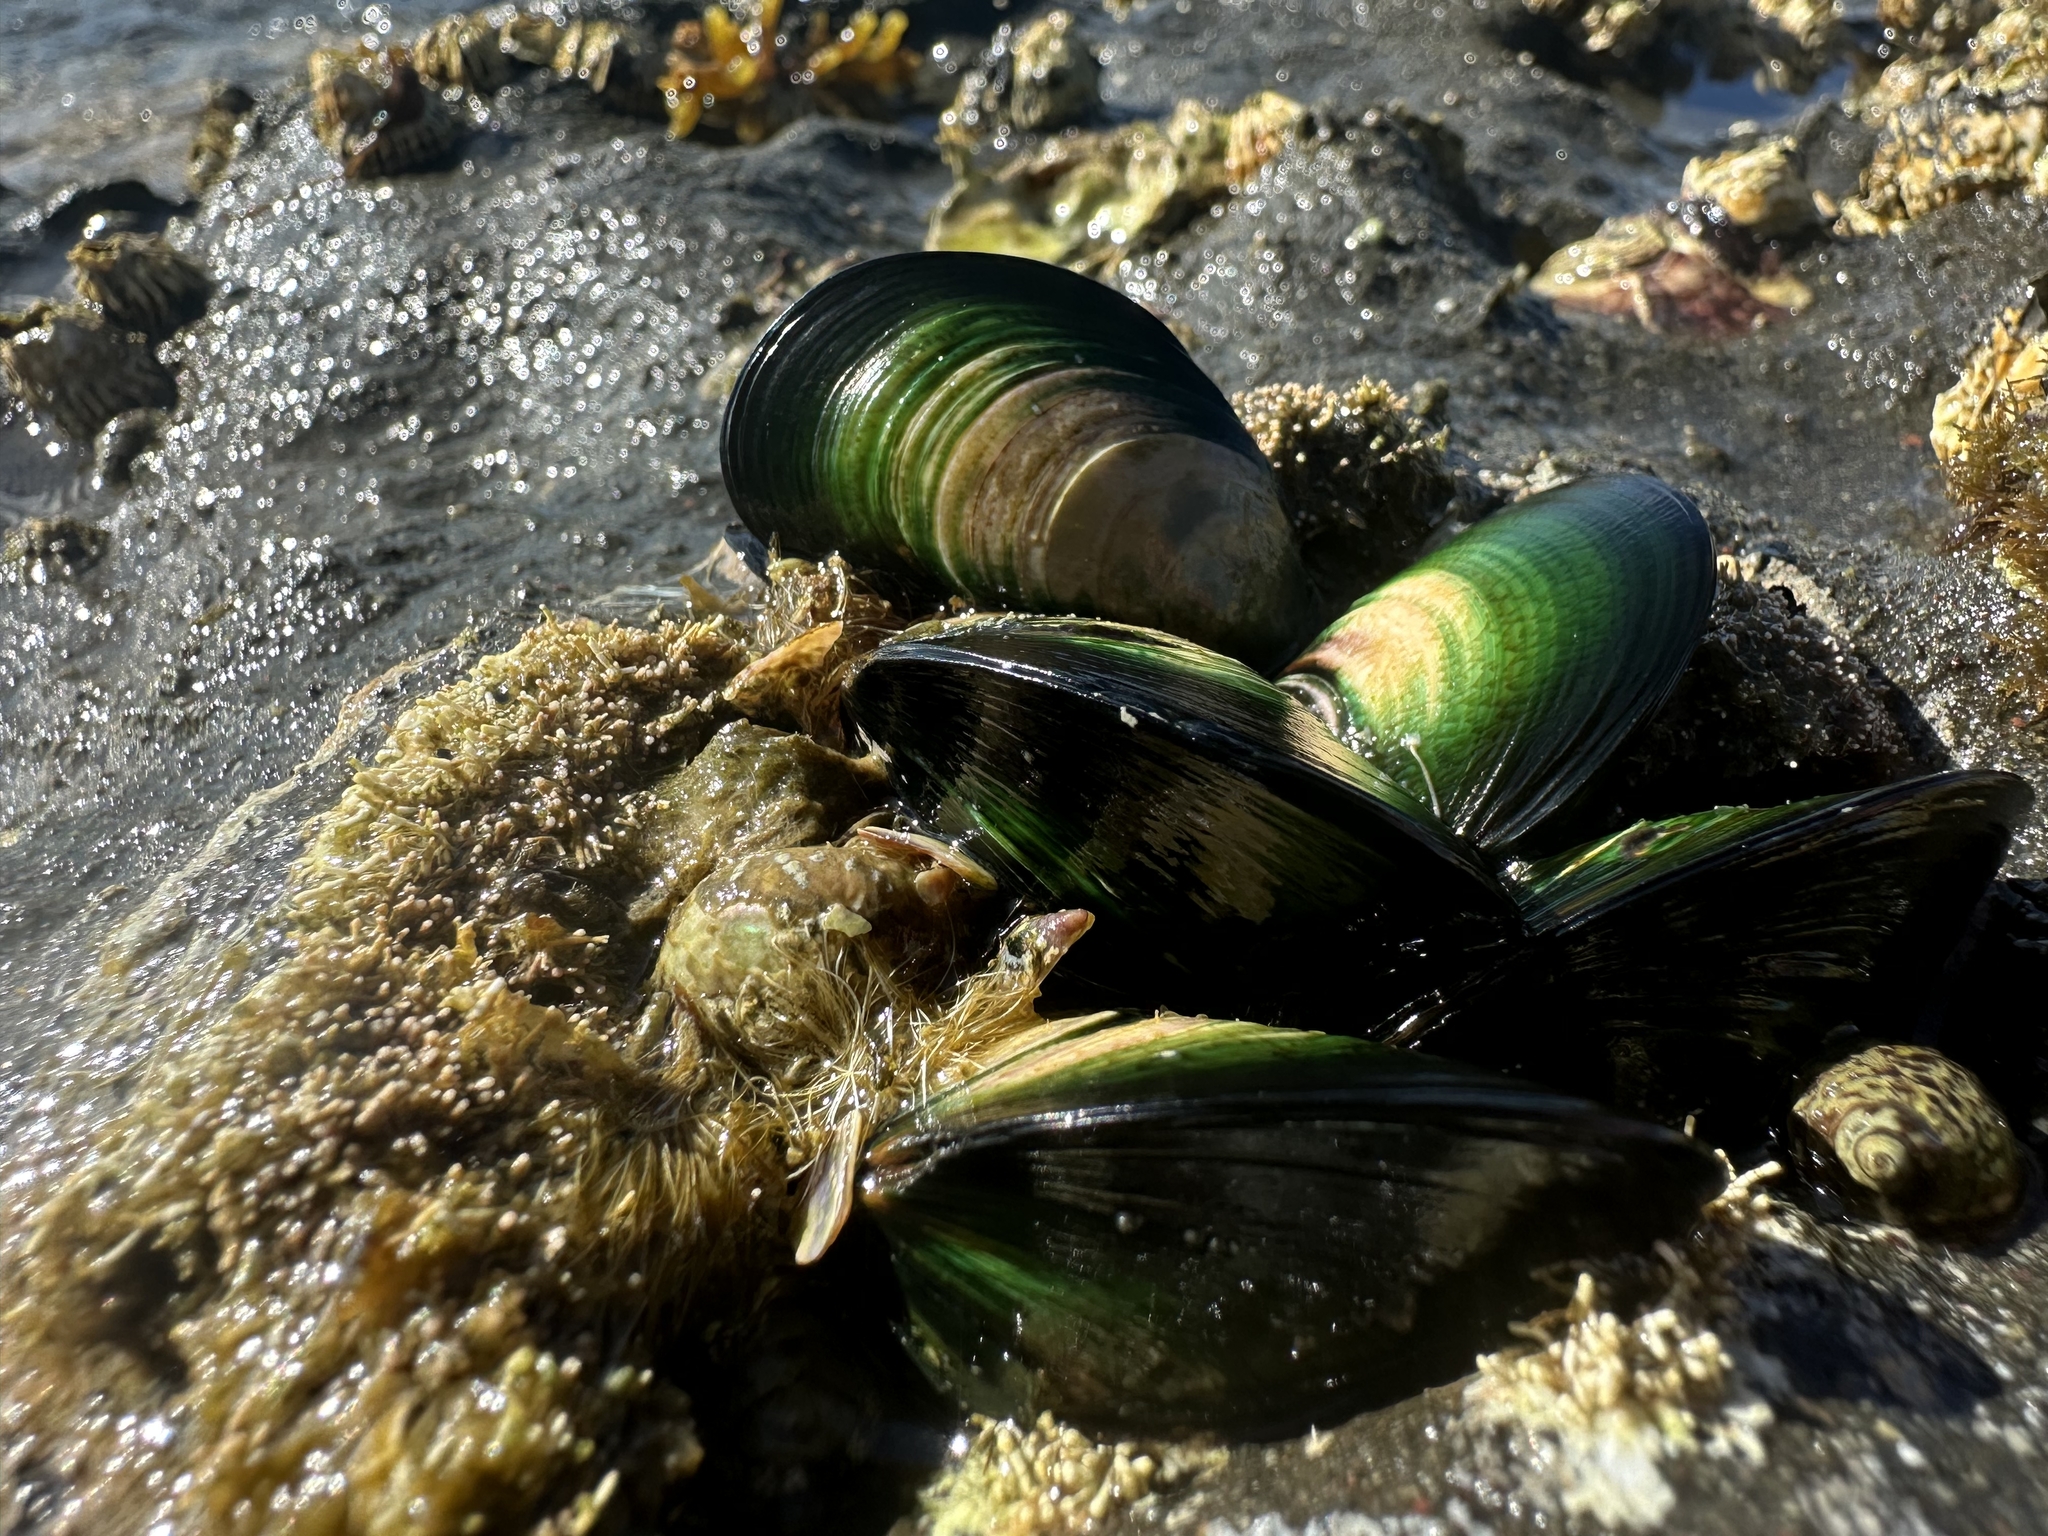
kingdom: Animalia
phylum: Mollusca
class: Bivalvia
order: Mytilida
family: Mytilidae
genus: Perna
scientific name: Perna canaliculus
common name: New zealand greenshelltm
